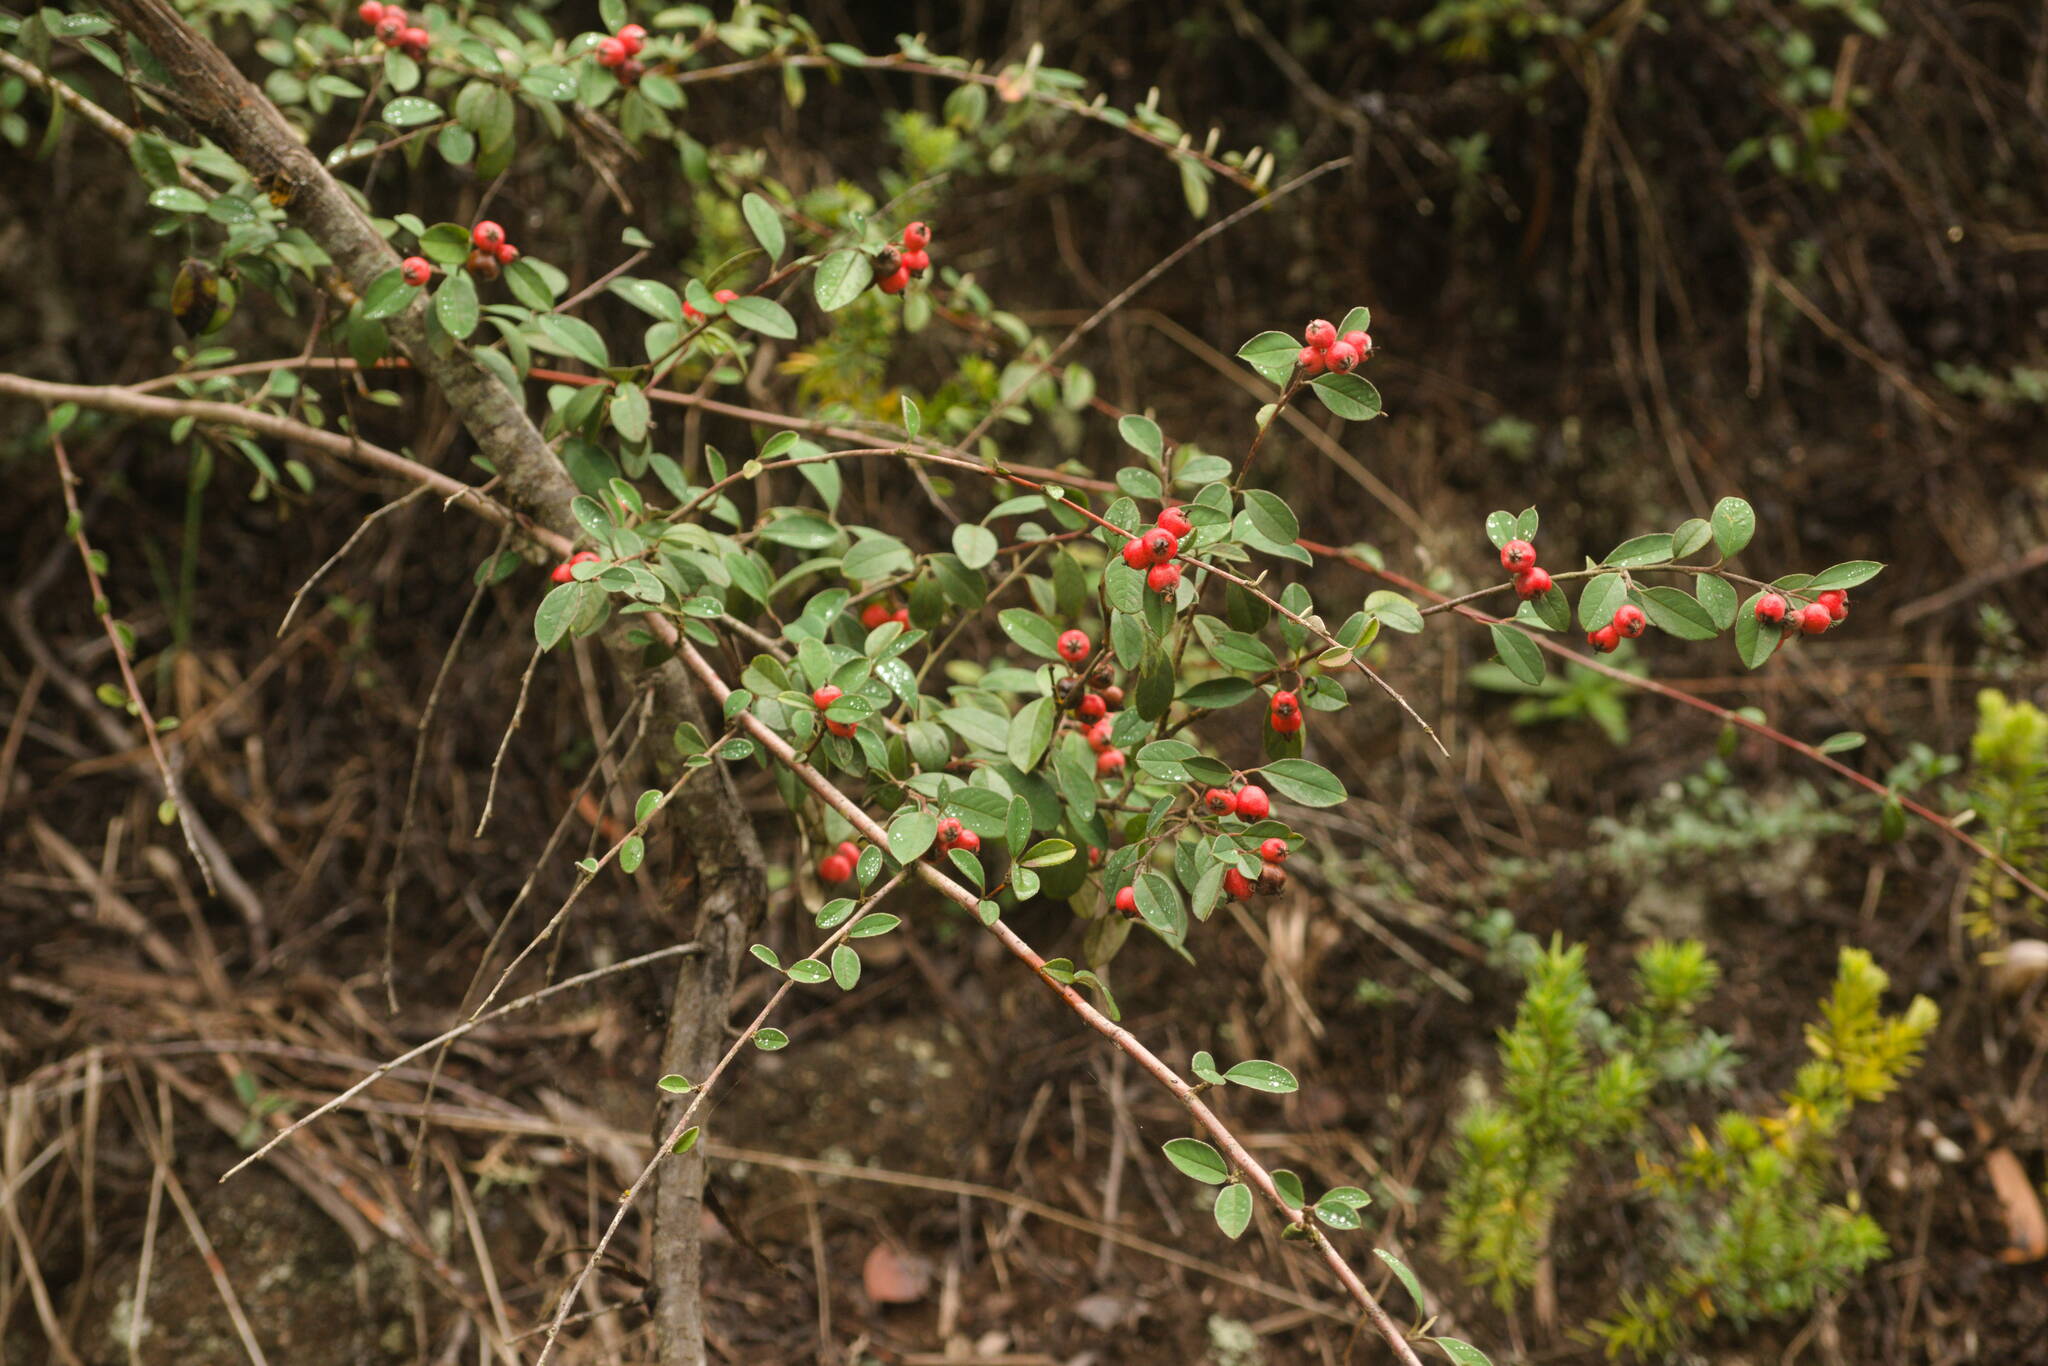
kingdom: Plantae
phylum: Tracheophyta
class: Magnoliopsida
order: Rosales
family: Rosaceae
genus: Cotoneaster
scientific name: Cotoneaster pannosus
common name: Silverleaf cotoneaster
